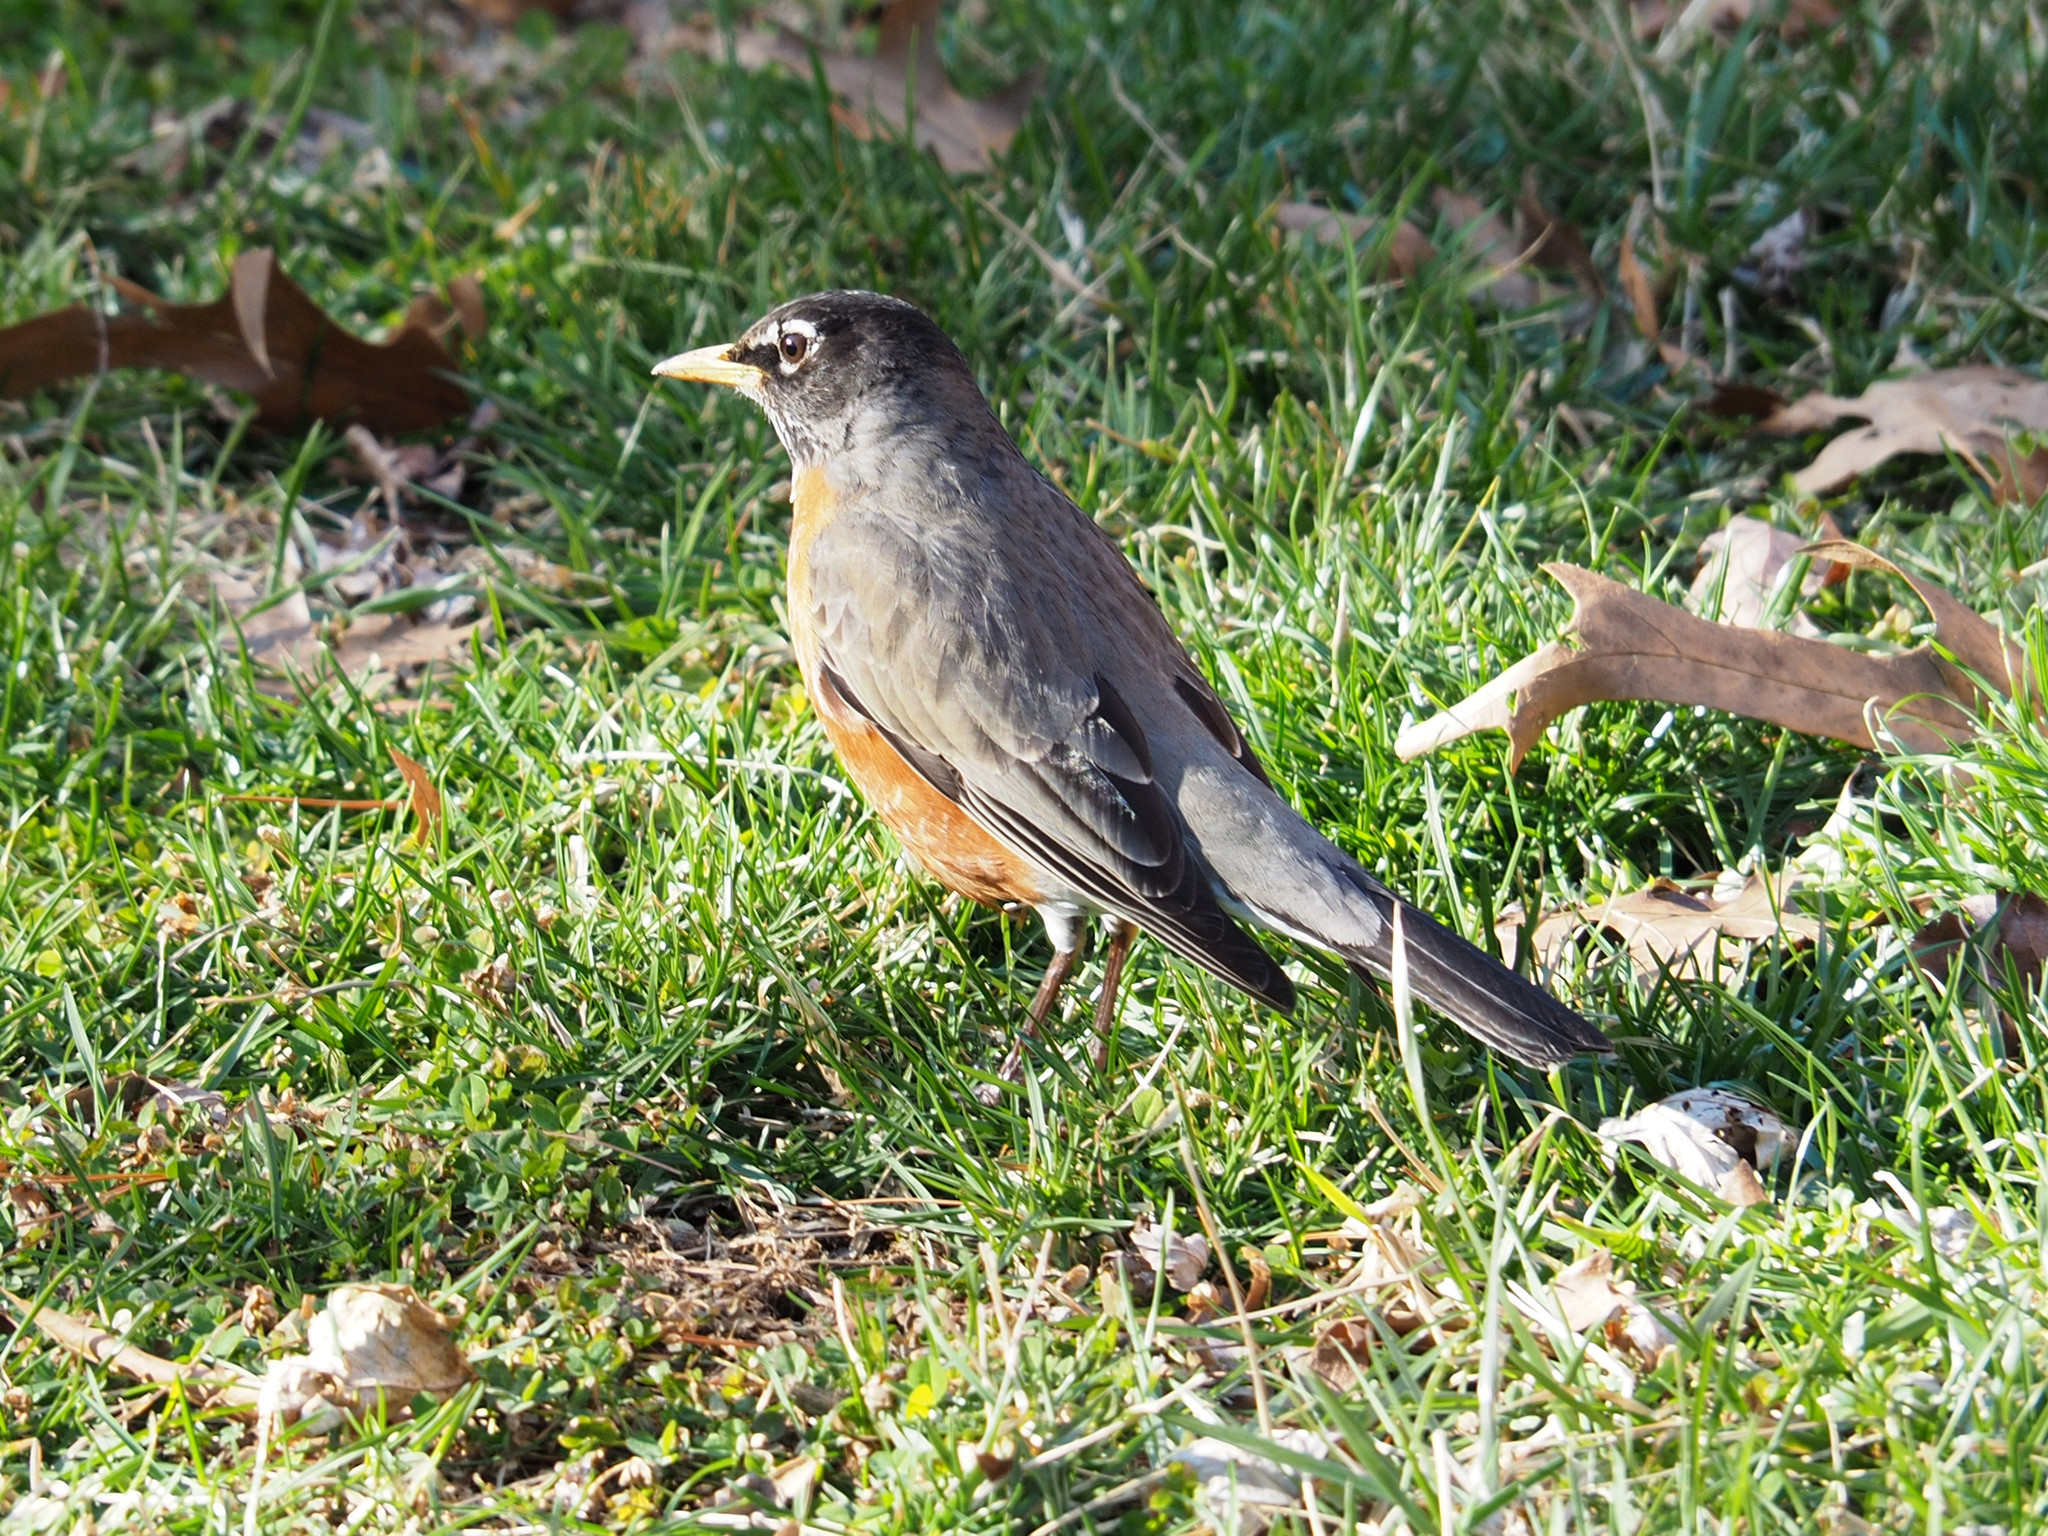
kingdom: Animalia
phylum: Chordata
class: Aves
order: Passeriformes
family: Turdidae
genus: Turdus
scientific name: Turdus migratorius
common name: American robin
